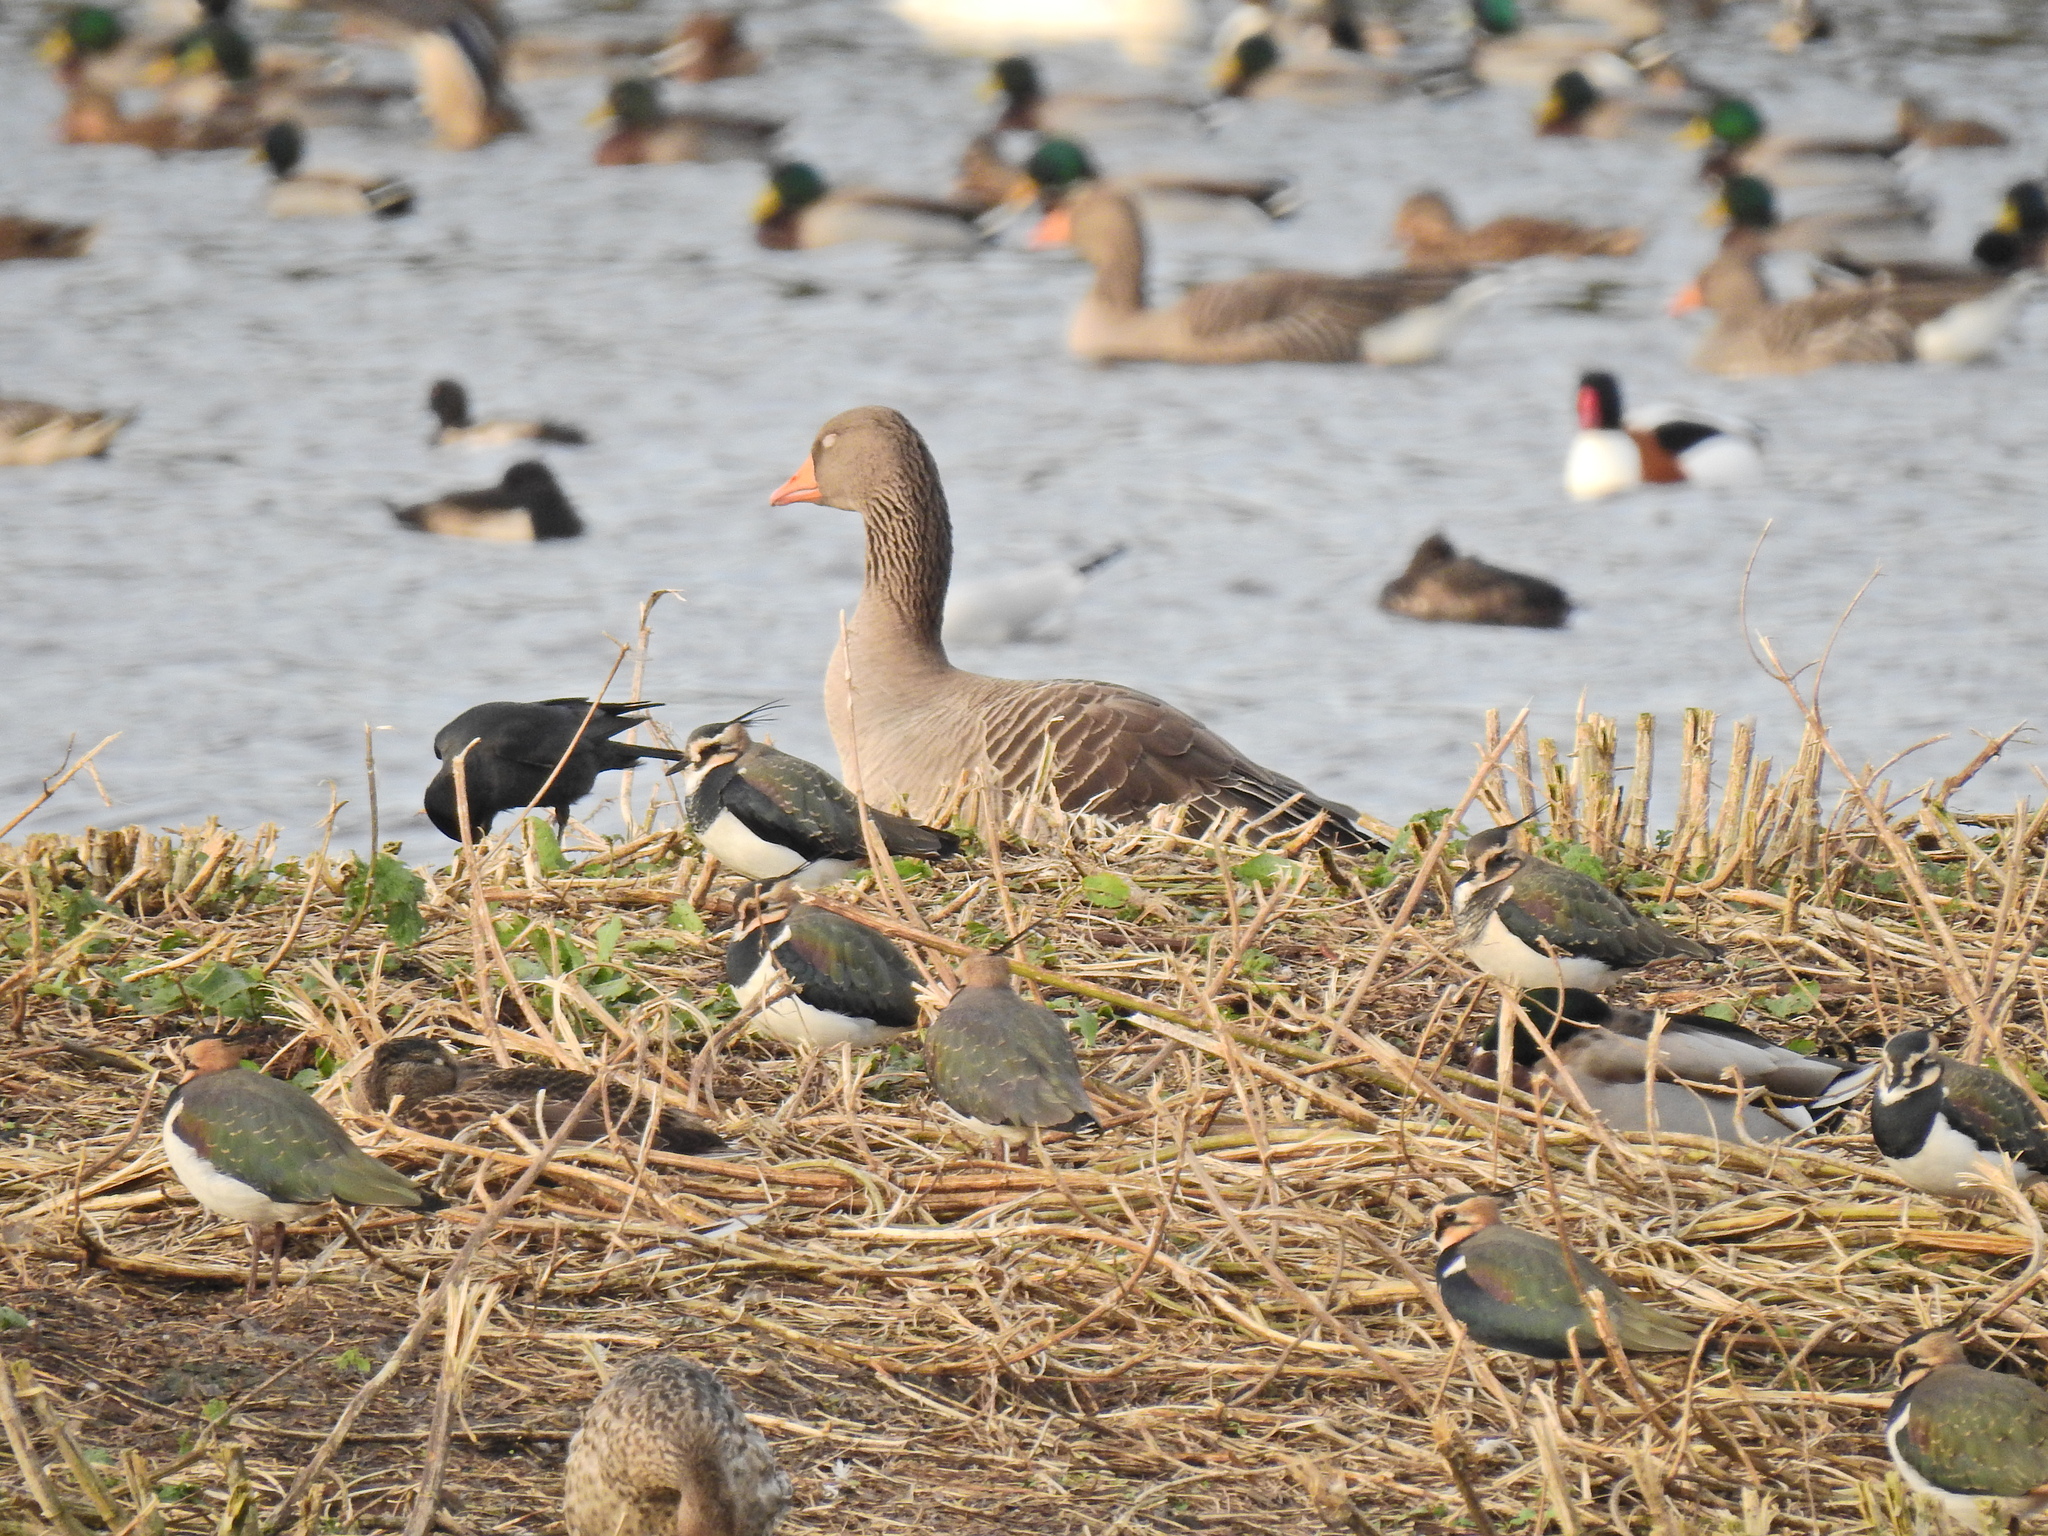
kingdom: Animalia
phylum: Chordata
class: Aves
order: Anseriformes
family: Anatidae
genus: Anser
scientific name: Anser anser
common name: Greylag goose
